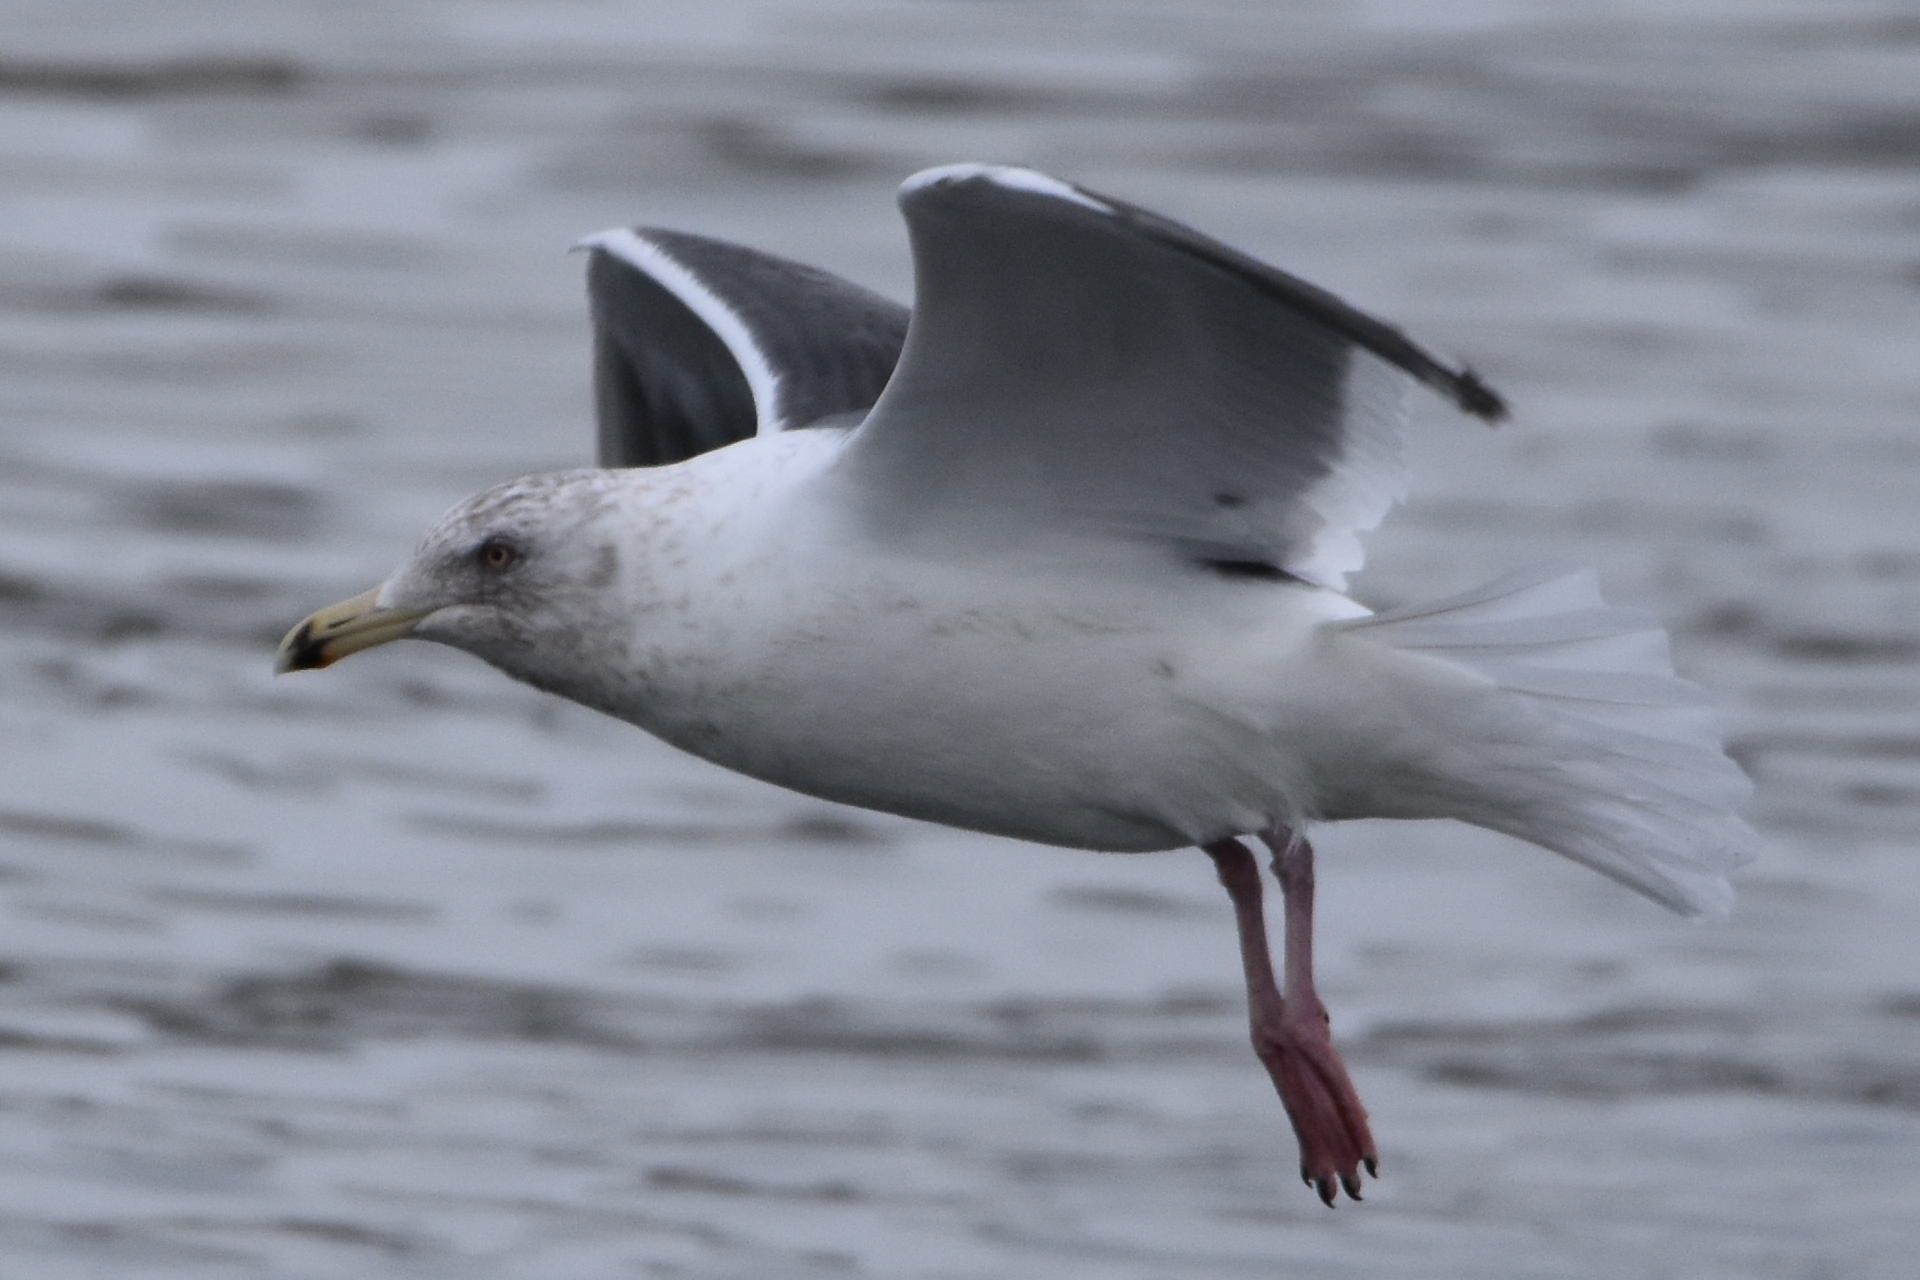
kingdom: Animalia
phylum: Chordata
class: Aves
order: Charadriiformes
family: Laridae
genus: Larus
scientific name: Larus schistisagus
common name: Slaty-backed gull
